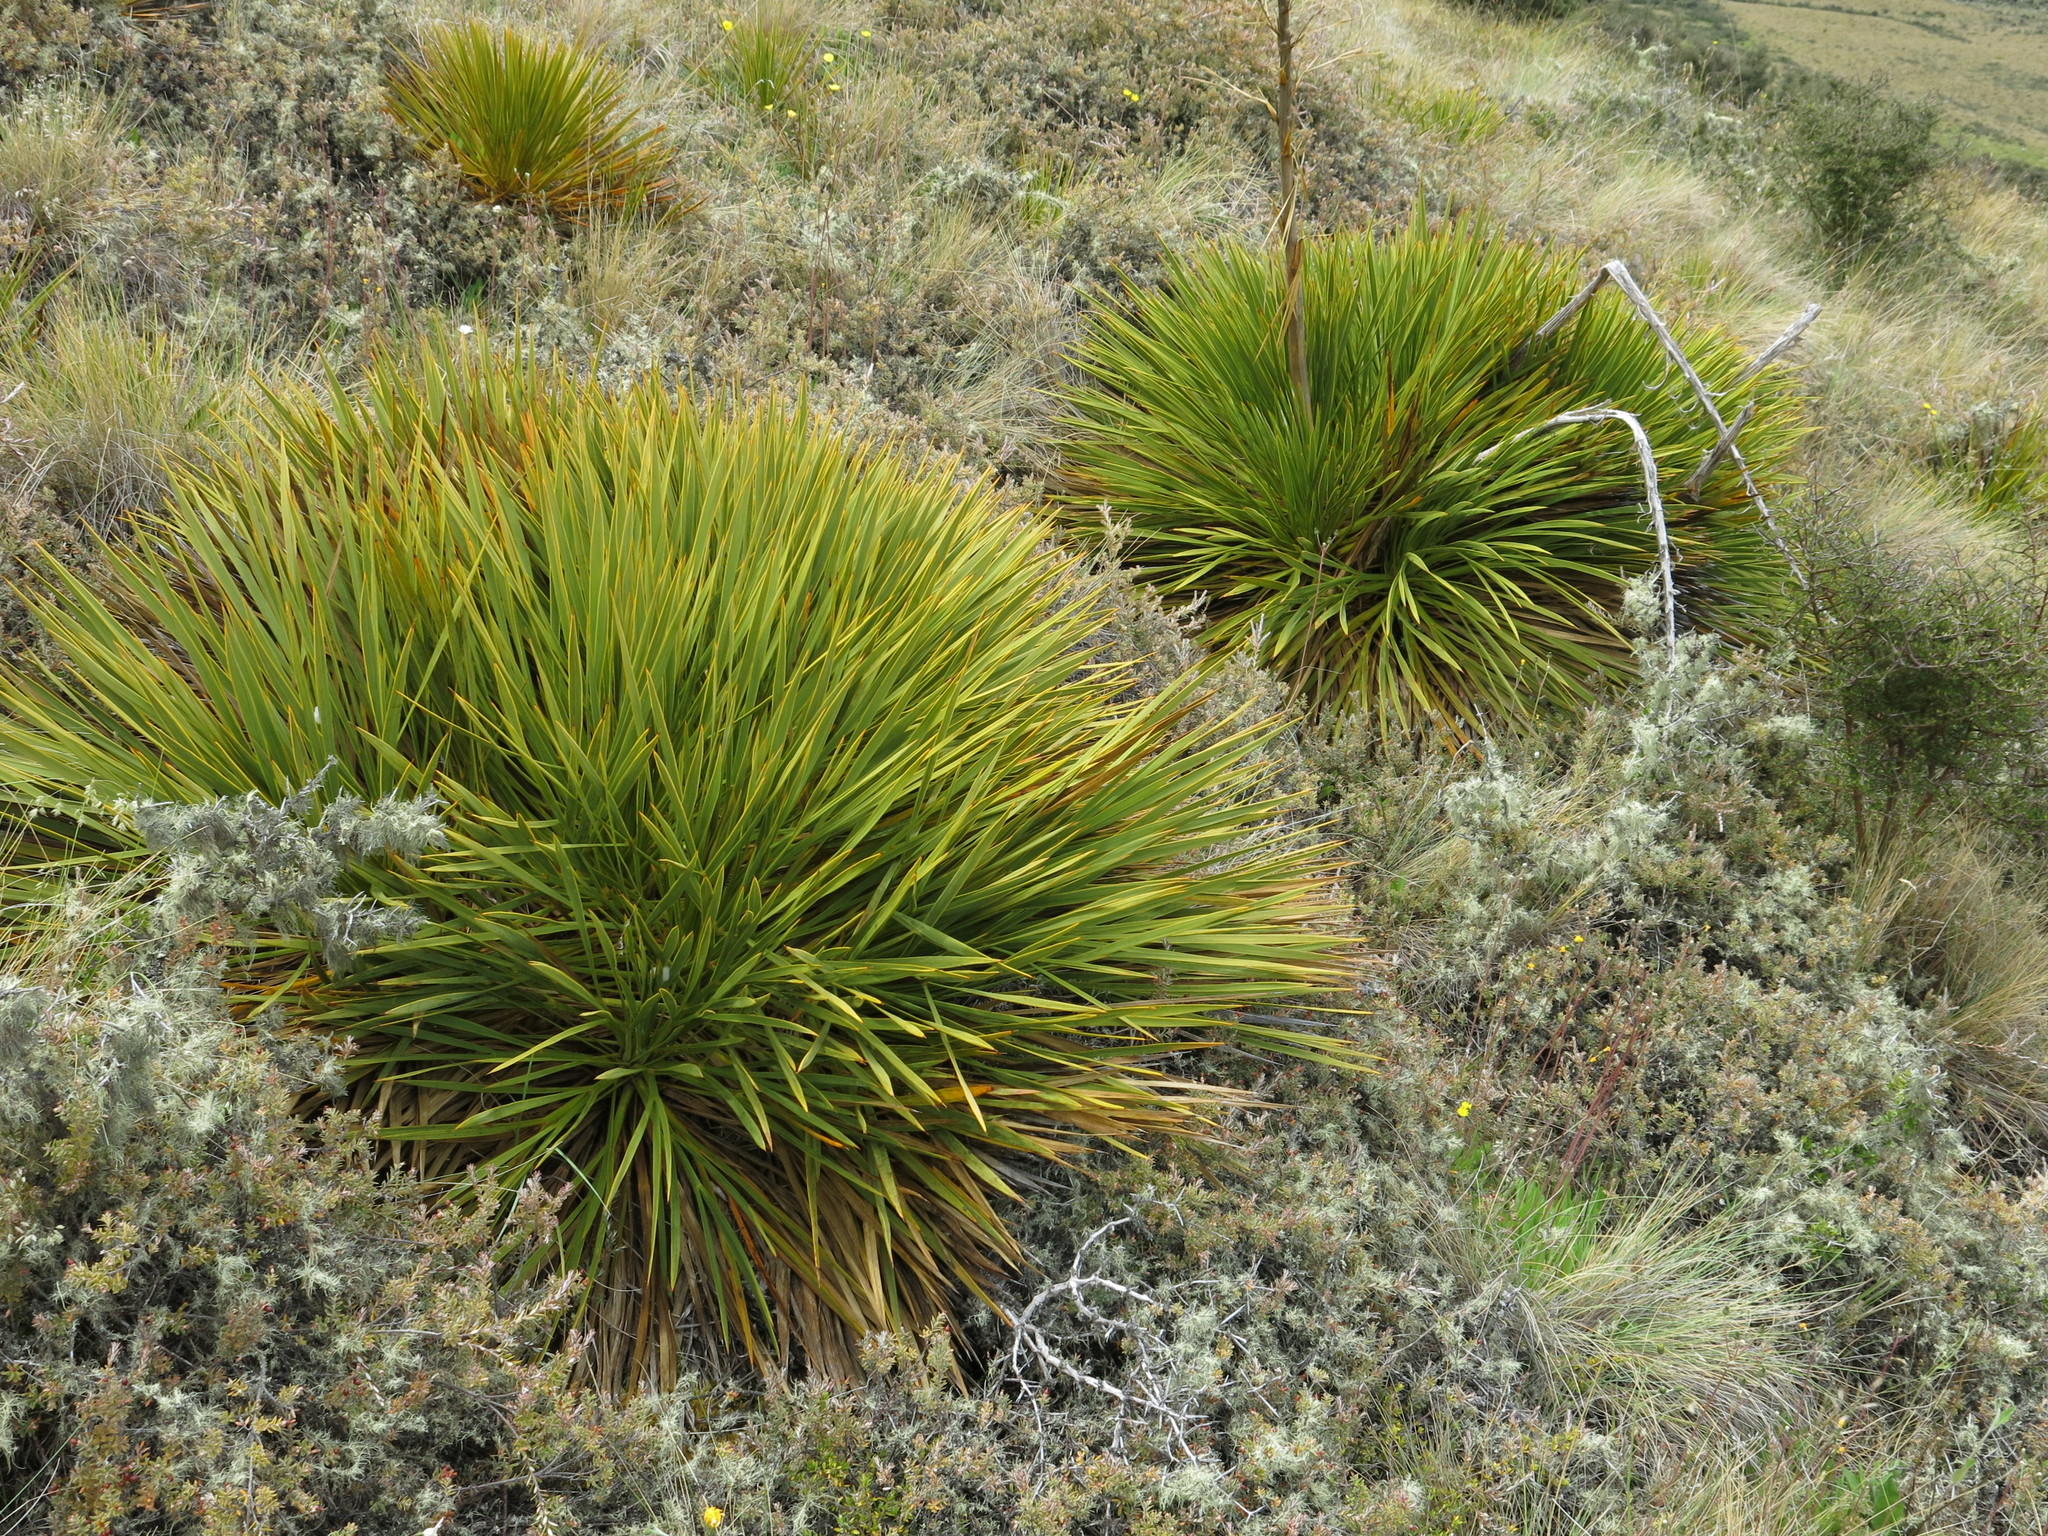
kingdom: Plantae
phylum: Tracheophyta
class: Magnoliopsida
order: Apiales
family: Apiaceae
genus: Aciphylla
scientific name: Aciphylla aurea
